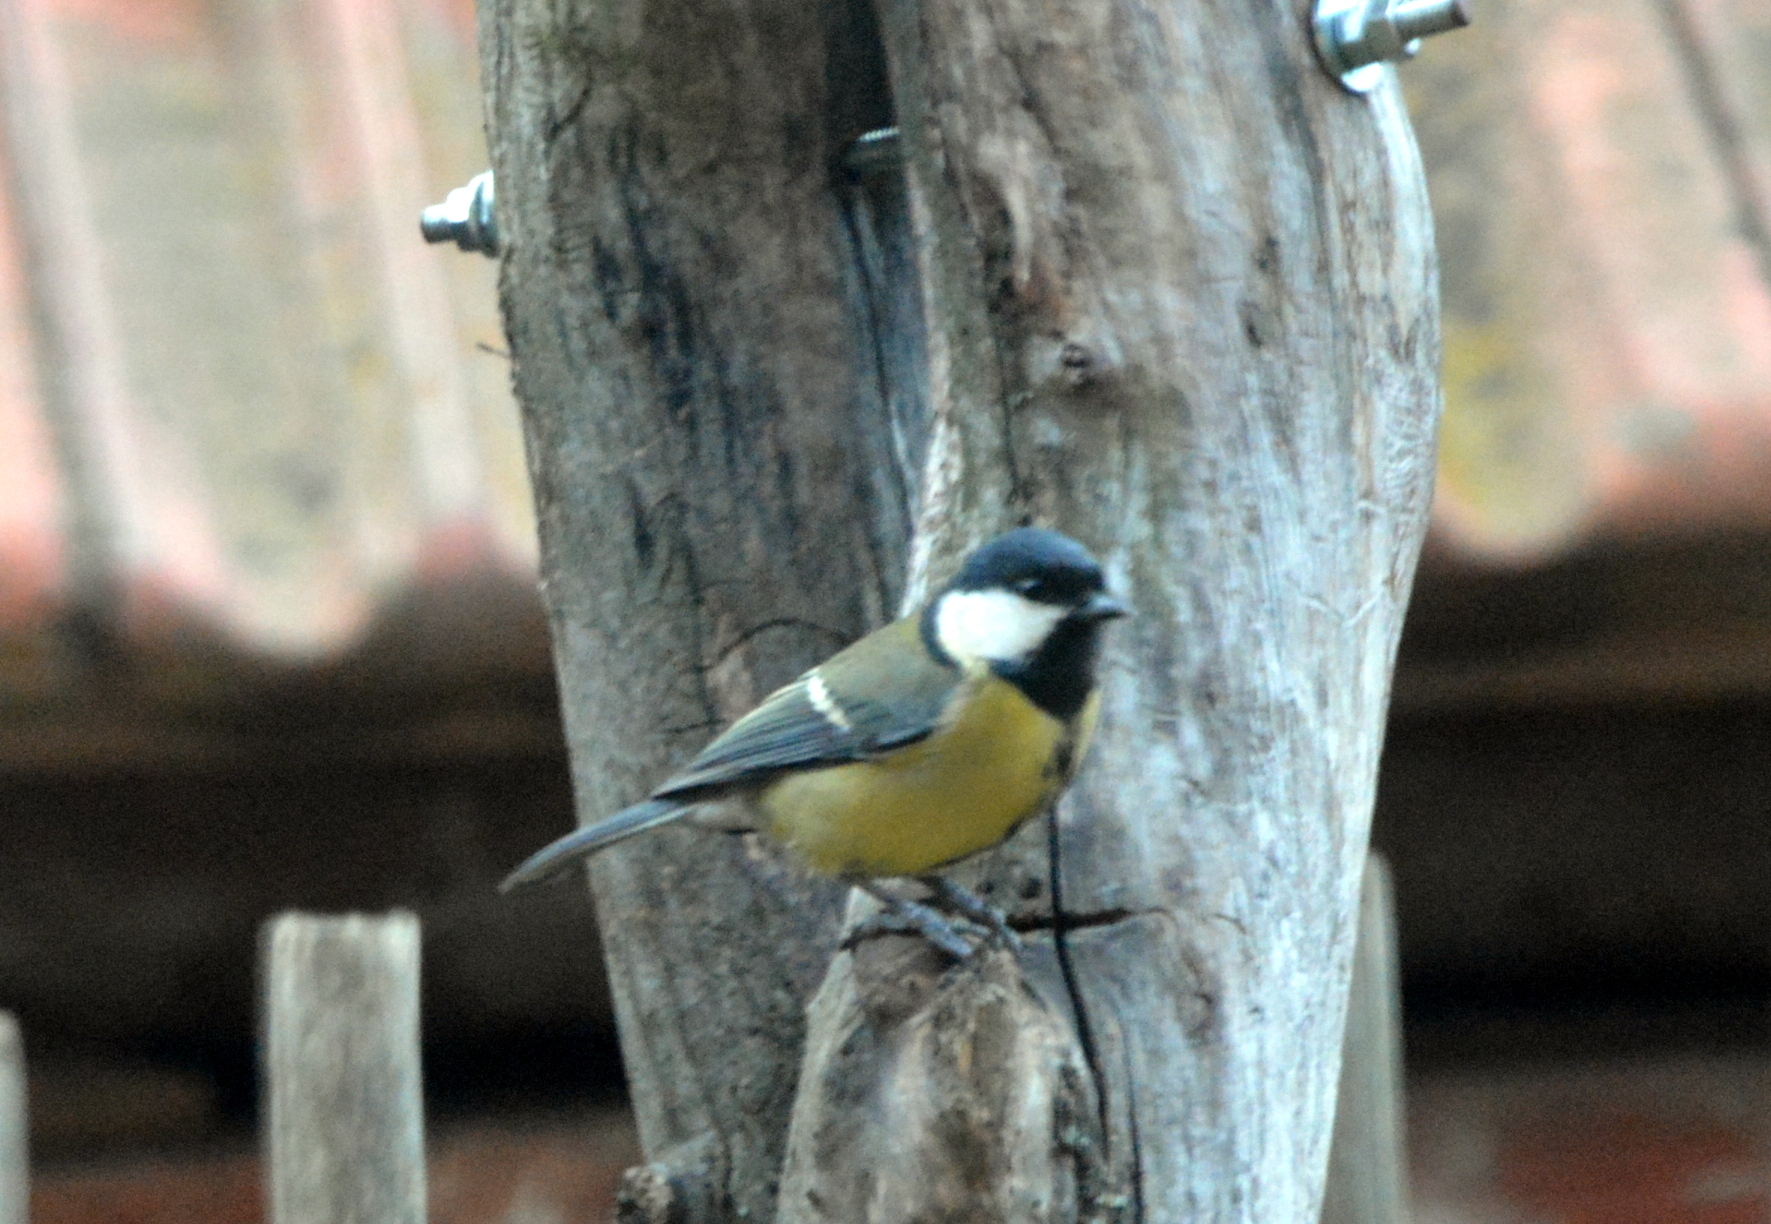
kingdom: Animalia
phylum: Chordata
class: Aves
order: Passeriformes
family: Paridae
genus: Parus
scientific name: Parus major
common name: Great tit
